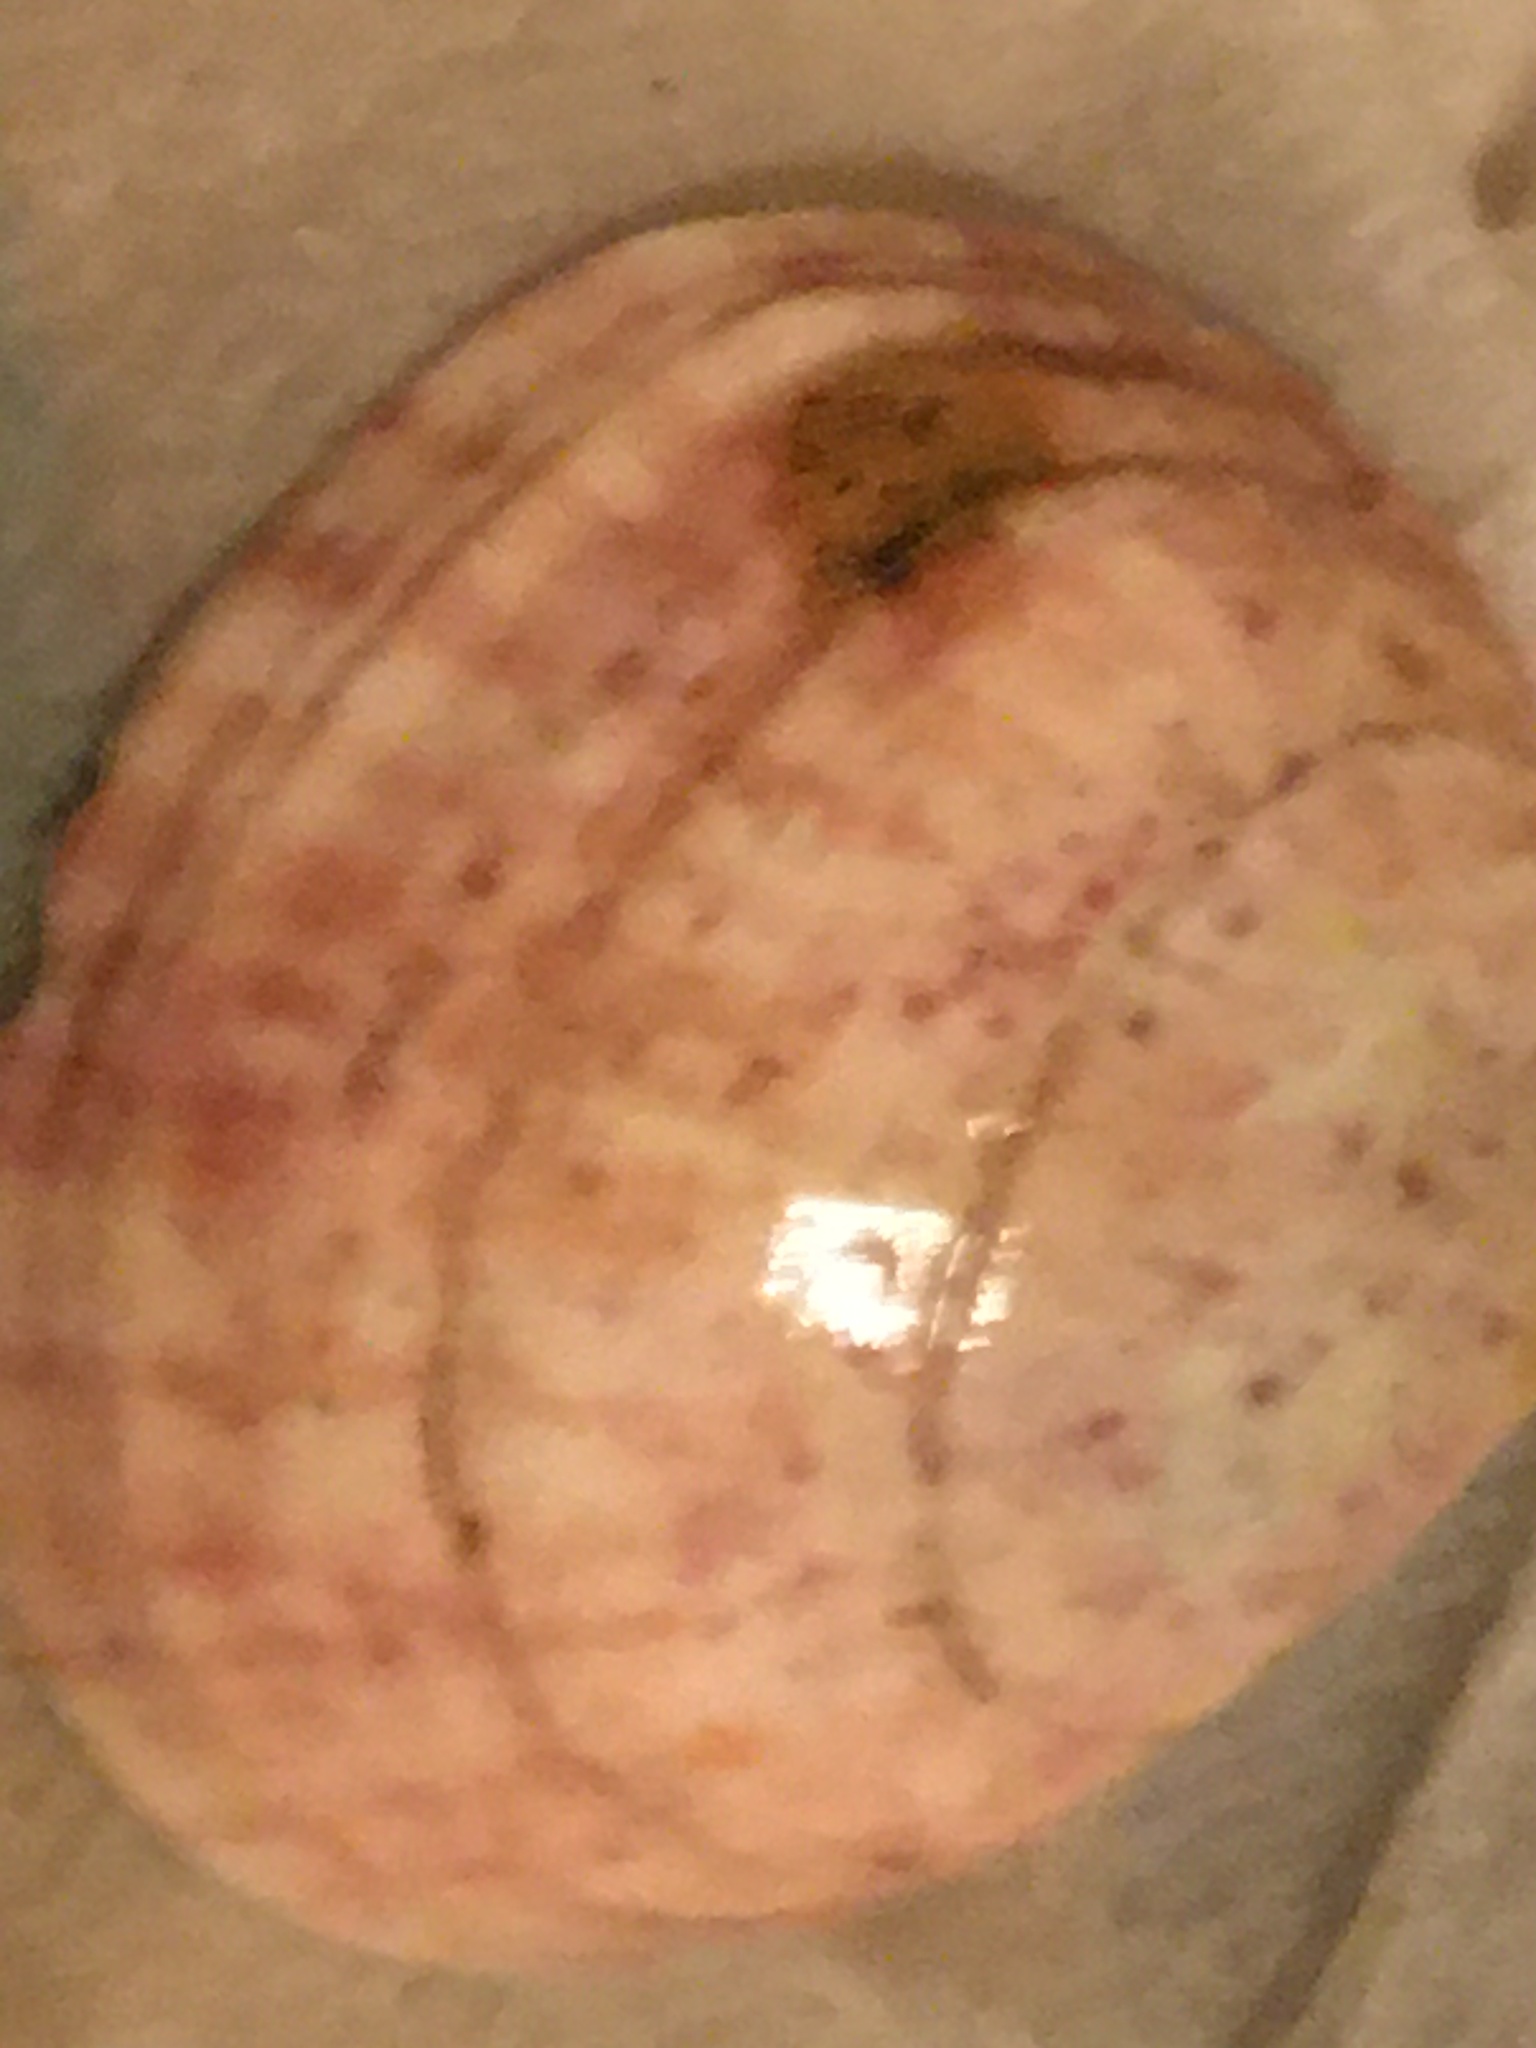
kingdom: Animalia
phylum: Mollusca
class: Bivalvia
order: Cardiida
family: Semelidae
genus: Semele
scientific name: Semele rubropicta
